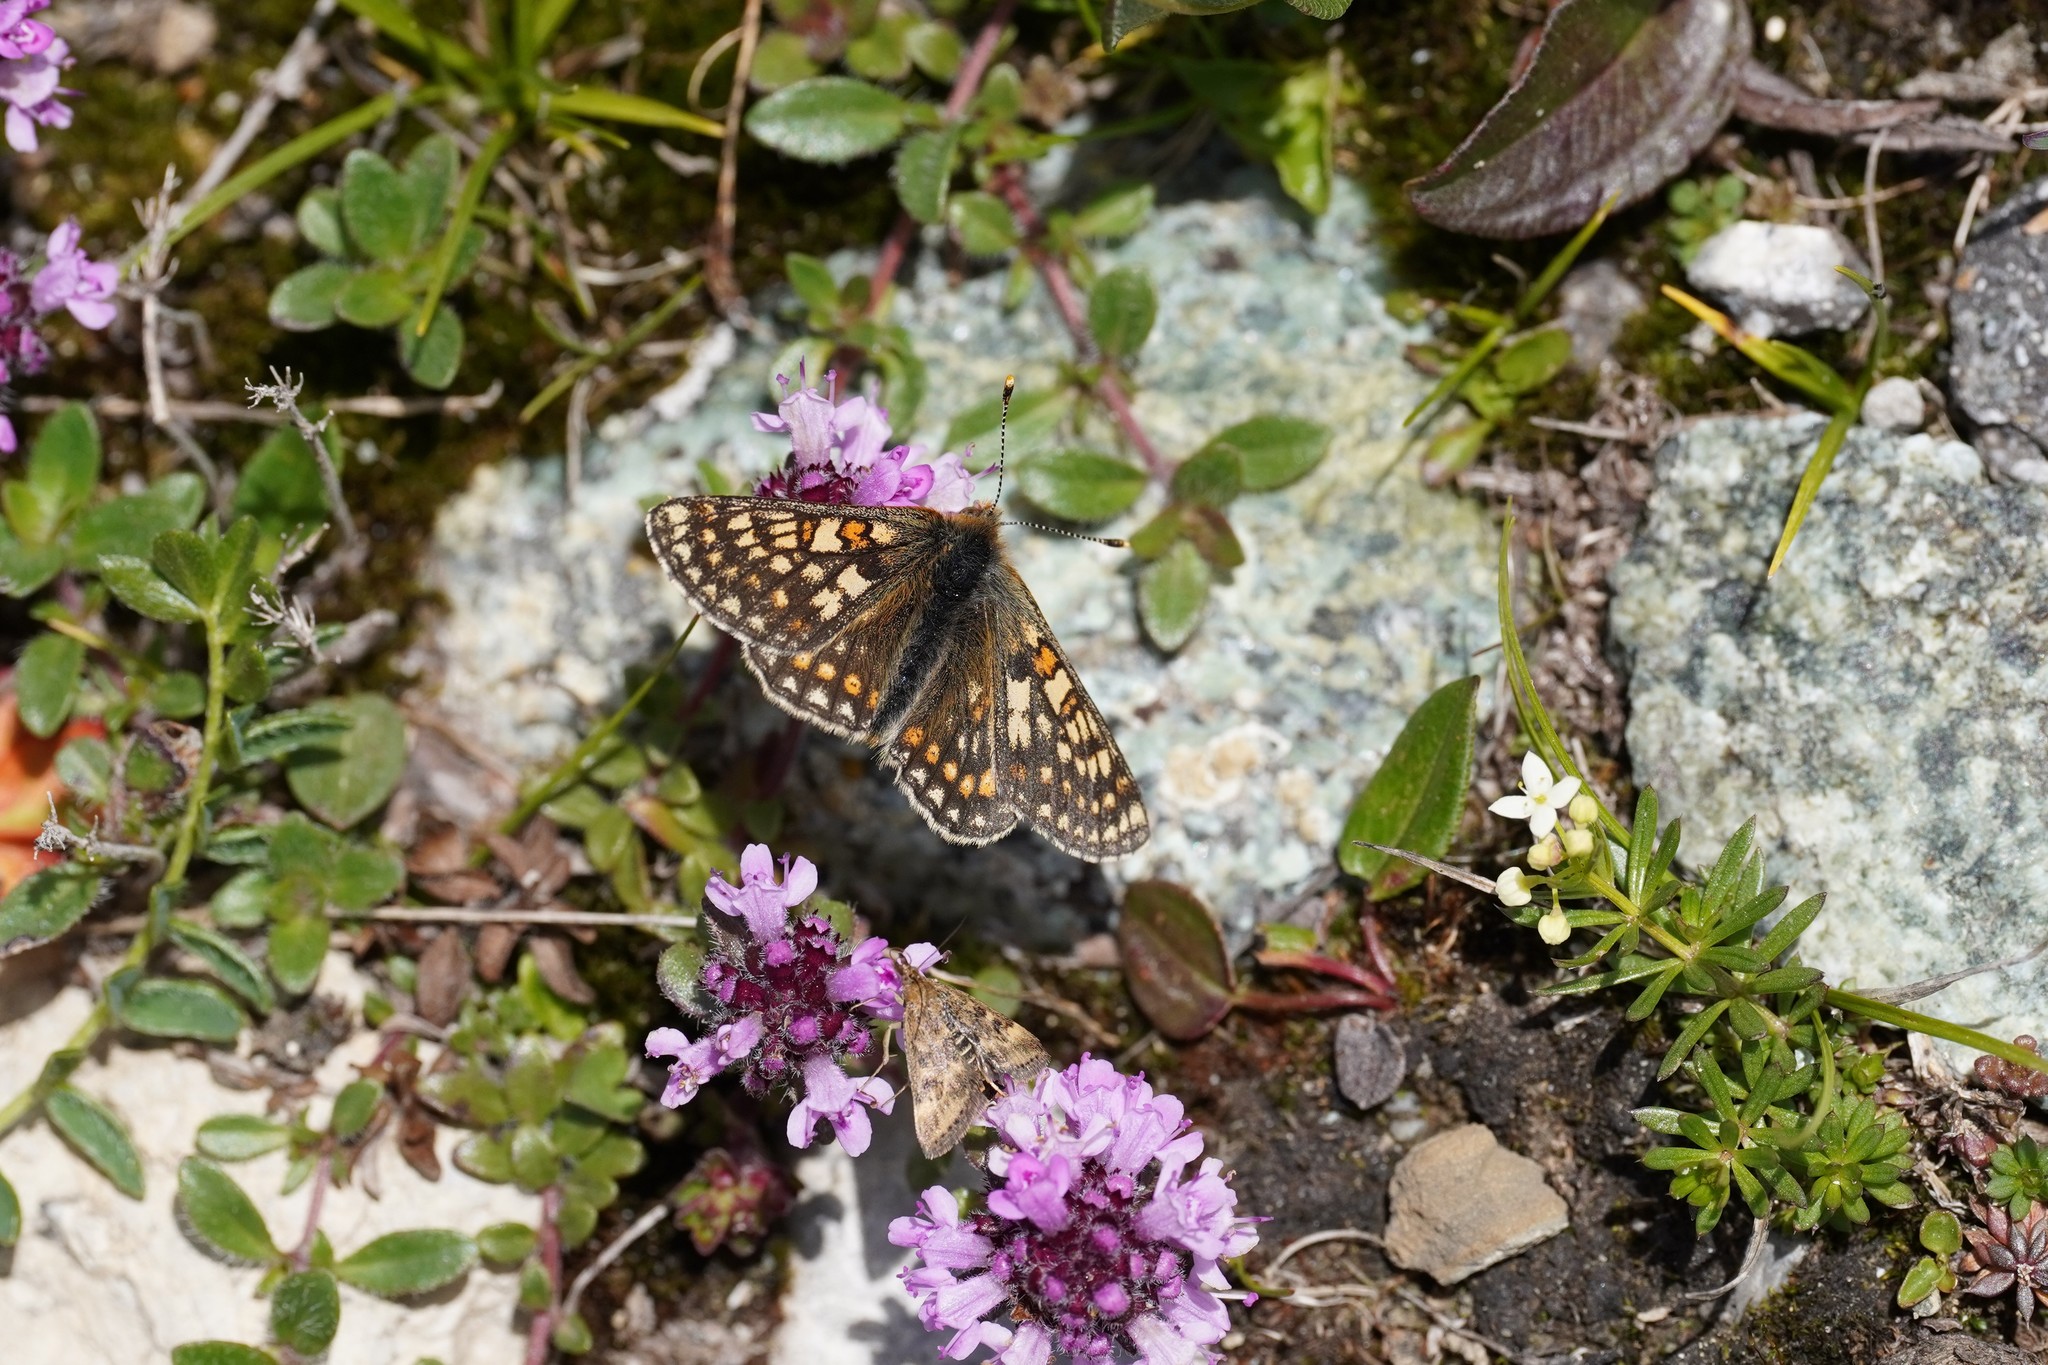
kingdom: Animalia
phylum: Arthropoda
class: Insecta
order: Lepidoptera
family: Nymphalidae
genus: Euphydryas
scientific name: Euphydryas aurinia
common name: Marsh fritillary
